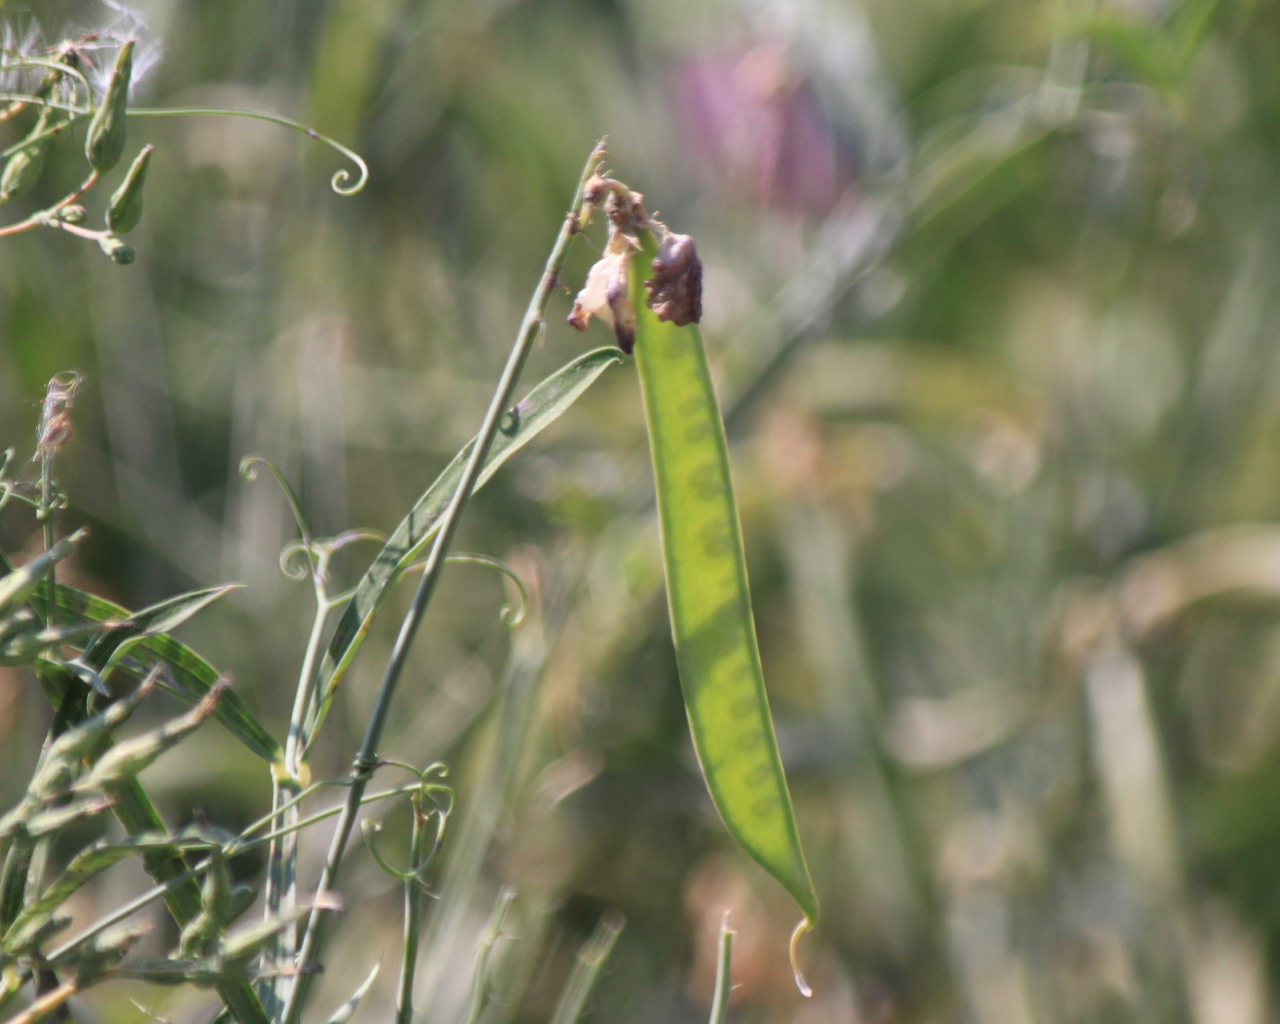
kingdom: Plantae
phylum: Tracheophyta
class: Magnoliopsida
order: Fabales
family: Fabaceae
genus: Lathyrus
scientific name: Lathyrus latifolius
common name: Perennial pea
